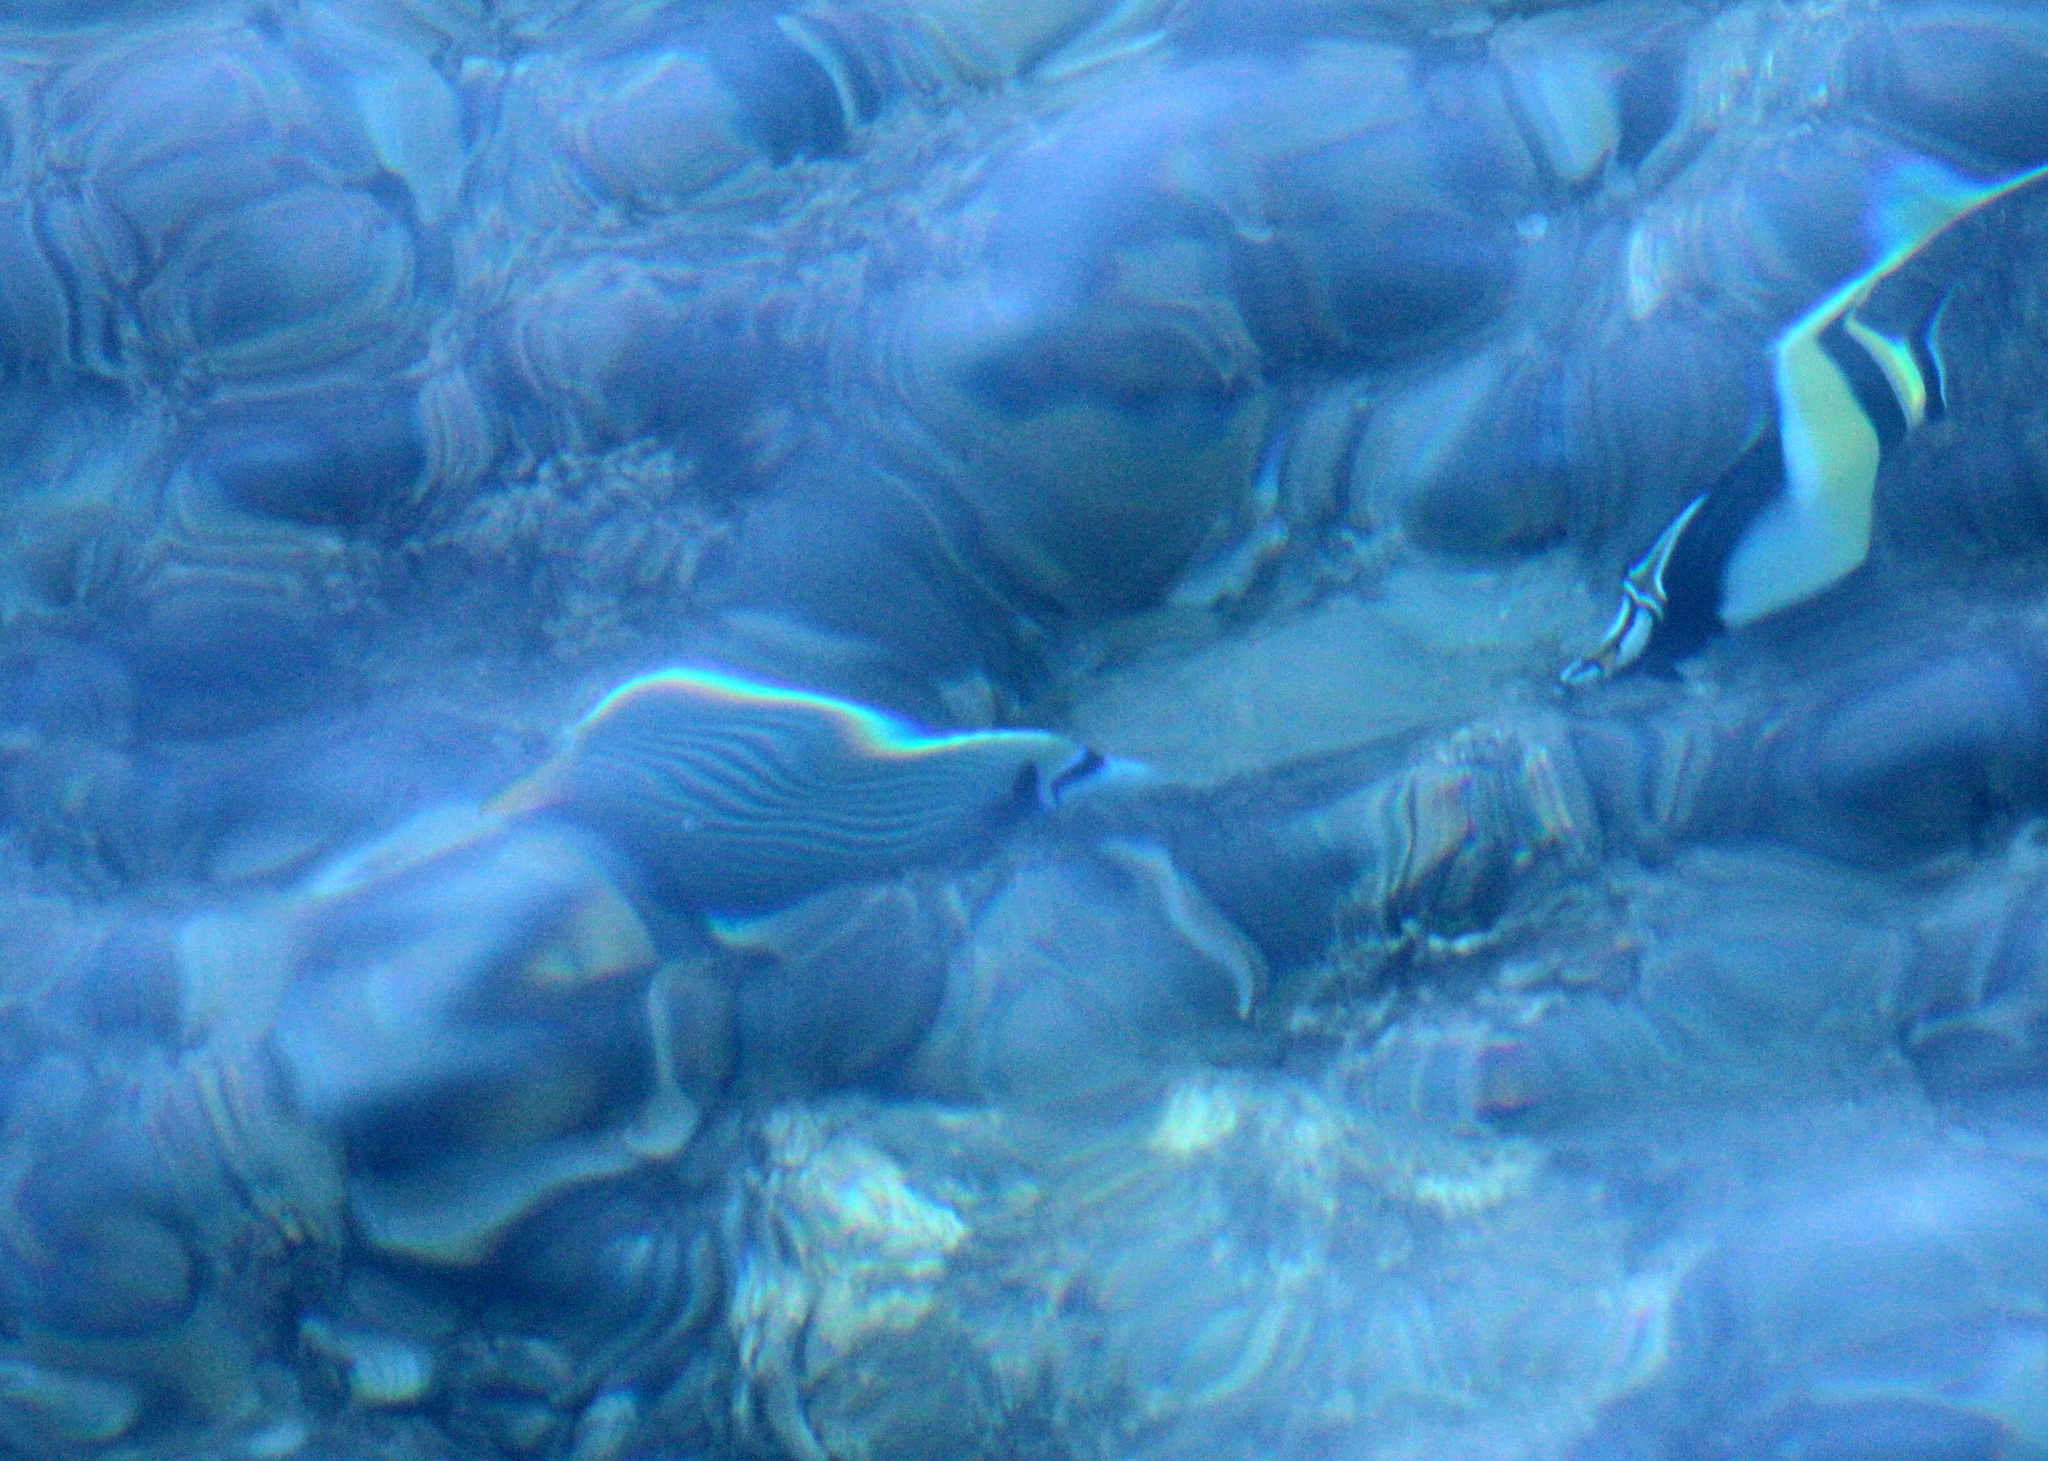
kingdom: Animalia
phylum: Chordata
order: Perciformes
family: Pomacanthidae
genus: Pomacanthus
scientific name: Pomacanthus imperator
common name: Emperor angelfish
